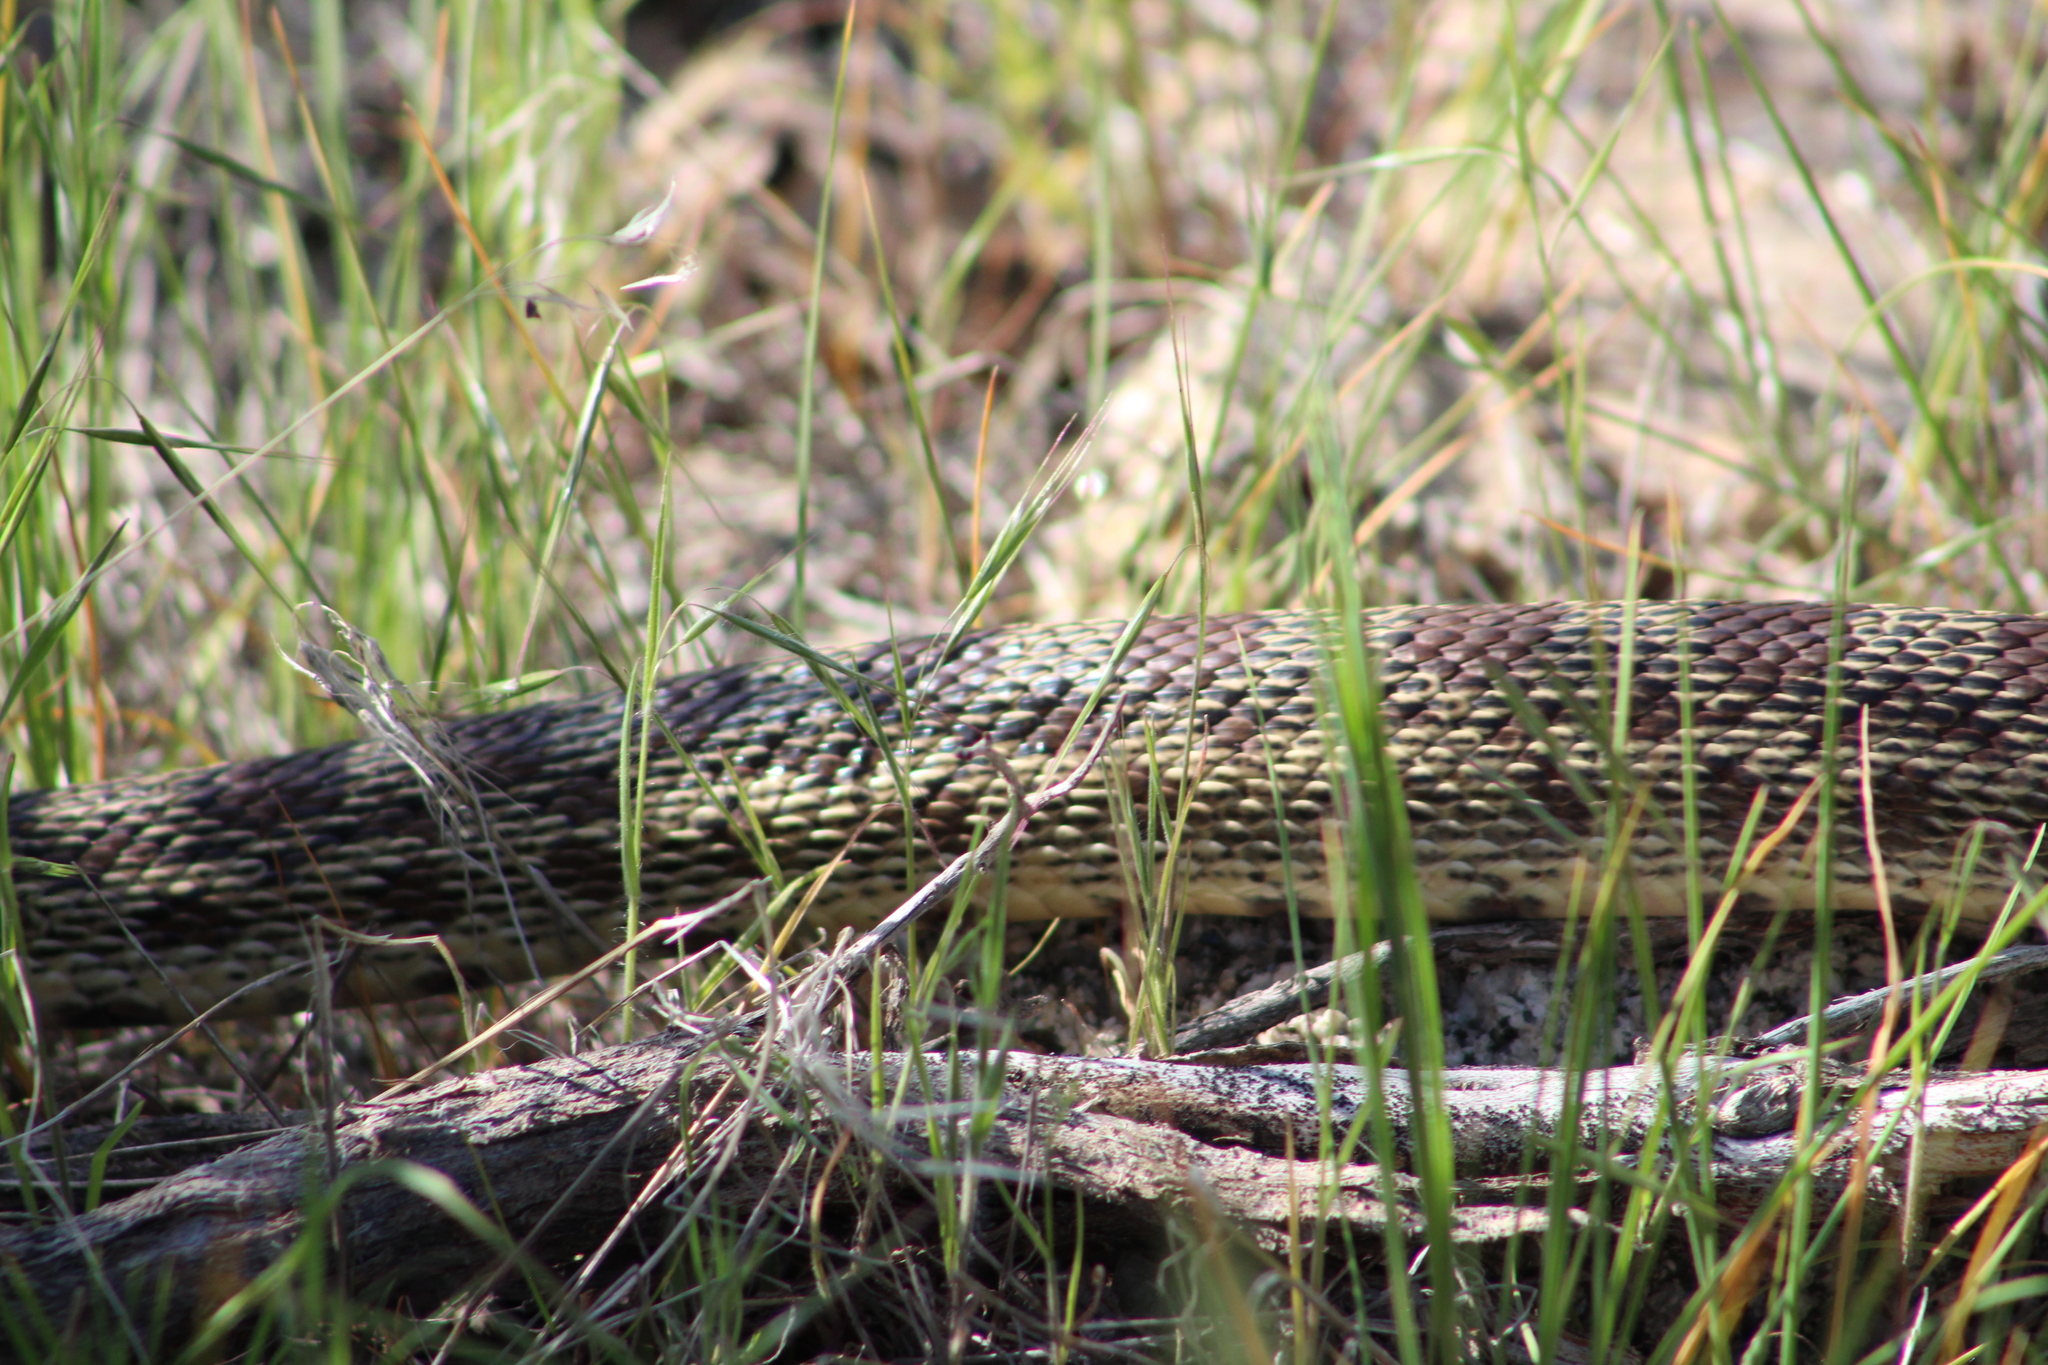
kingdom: Animalia
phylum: Chordata
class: Squamata
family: Colubridae
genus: Pituophis
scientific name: Pituophis catenifer
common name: Gopher snake
